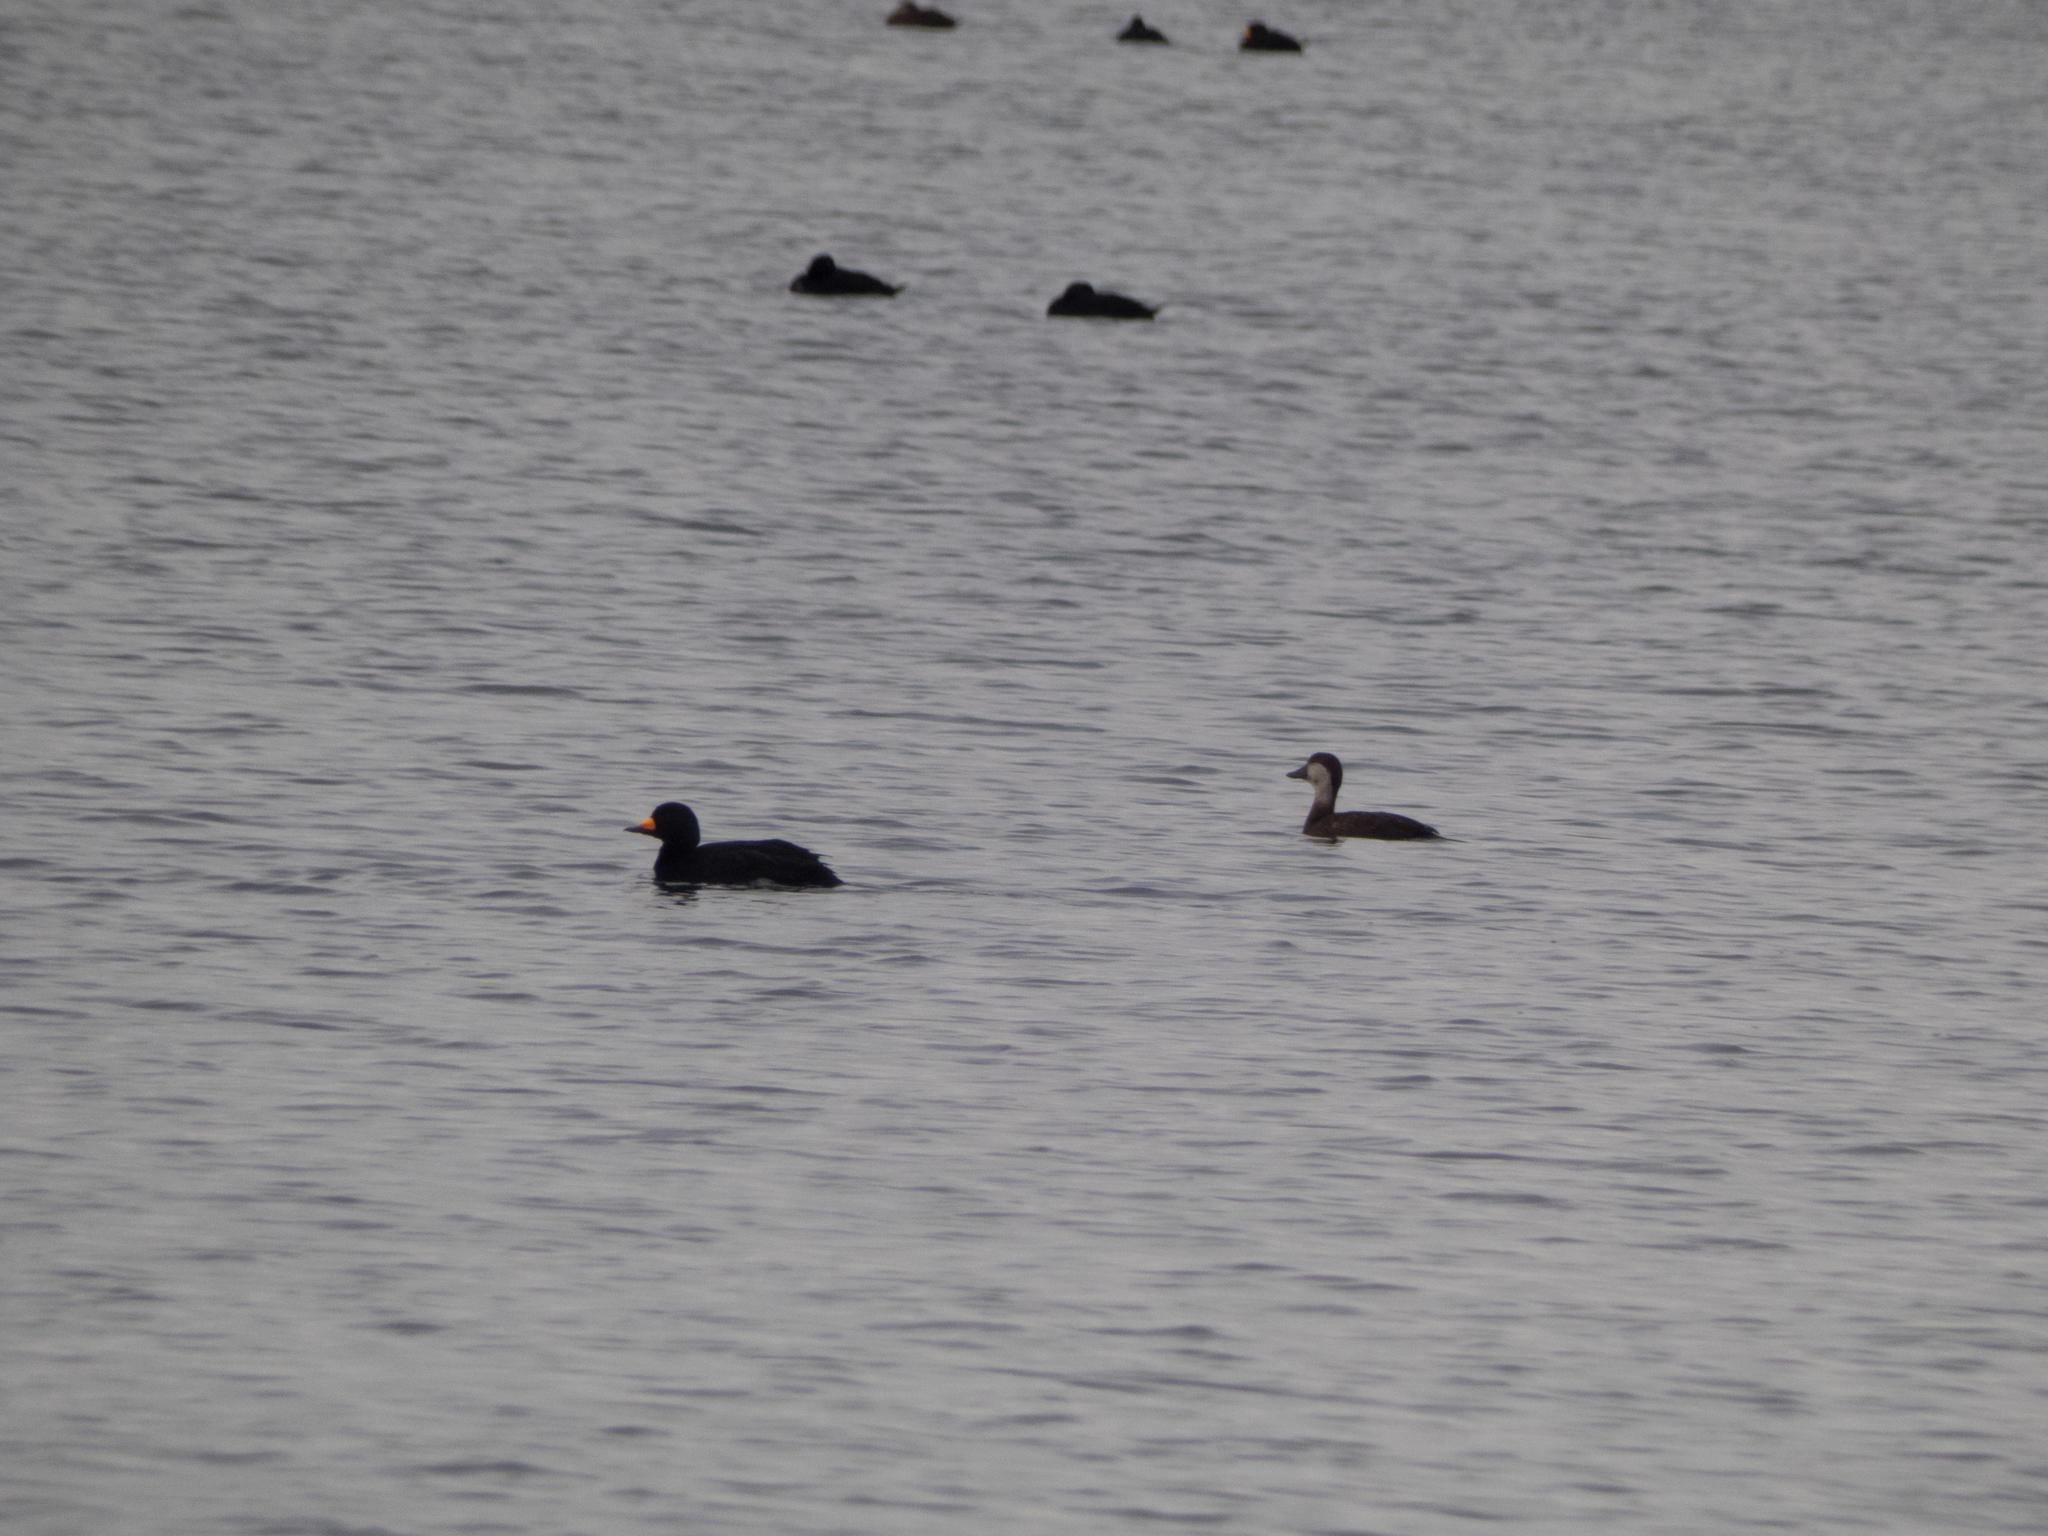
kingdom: Animalia
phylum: Chordata
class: Aves
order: Anseriformes
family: Anatidae
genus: Melanitta
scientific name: Melanitta americana
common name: Black scoter
